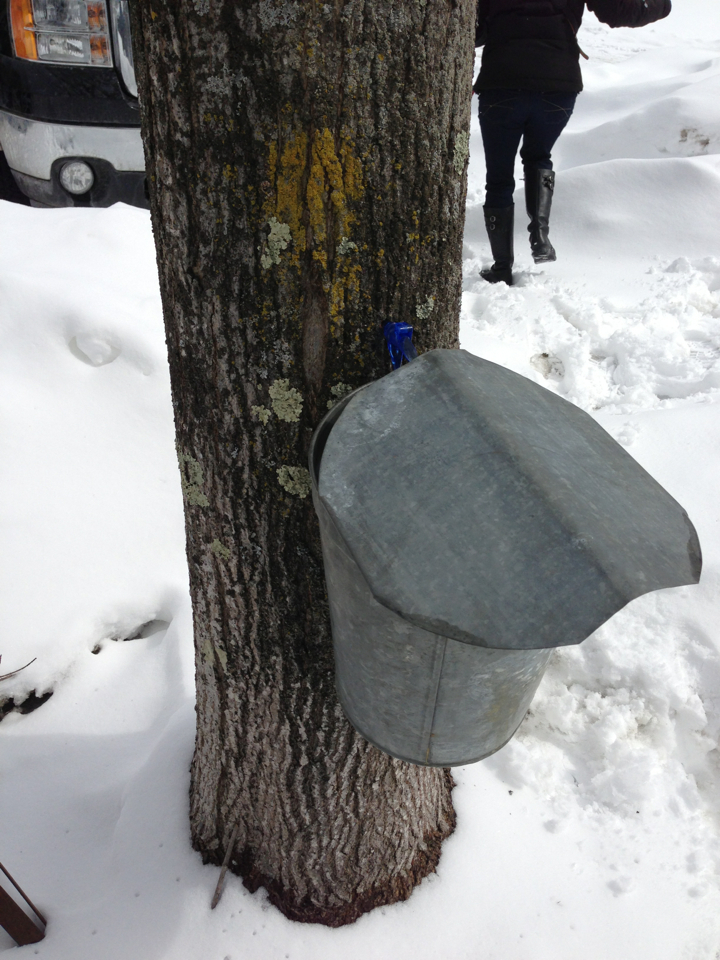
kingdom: Plantae
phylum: Tracheophyta
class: Magnoliopsida
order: Sapindales
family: Sapindaceae
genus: Acer
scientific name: Acer saccharum
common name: Sugar maple
